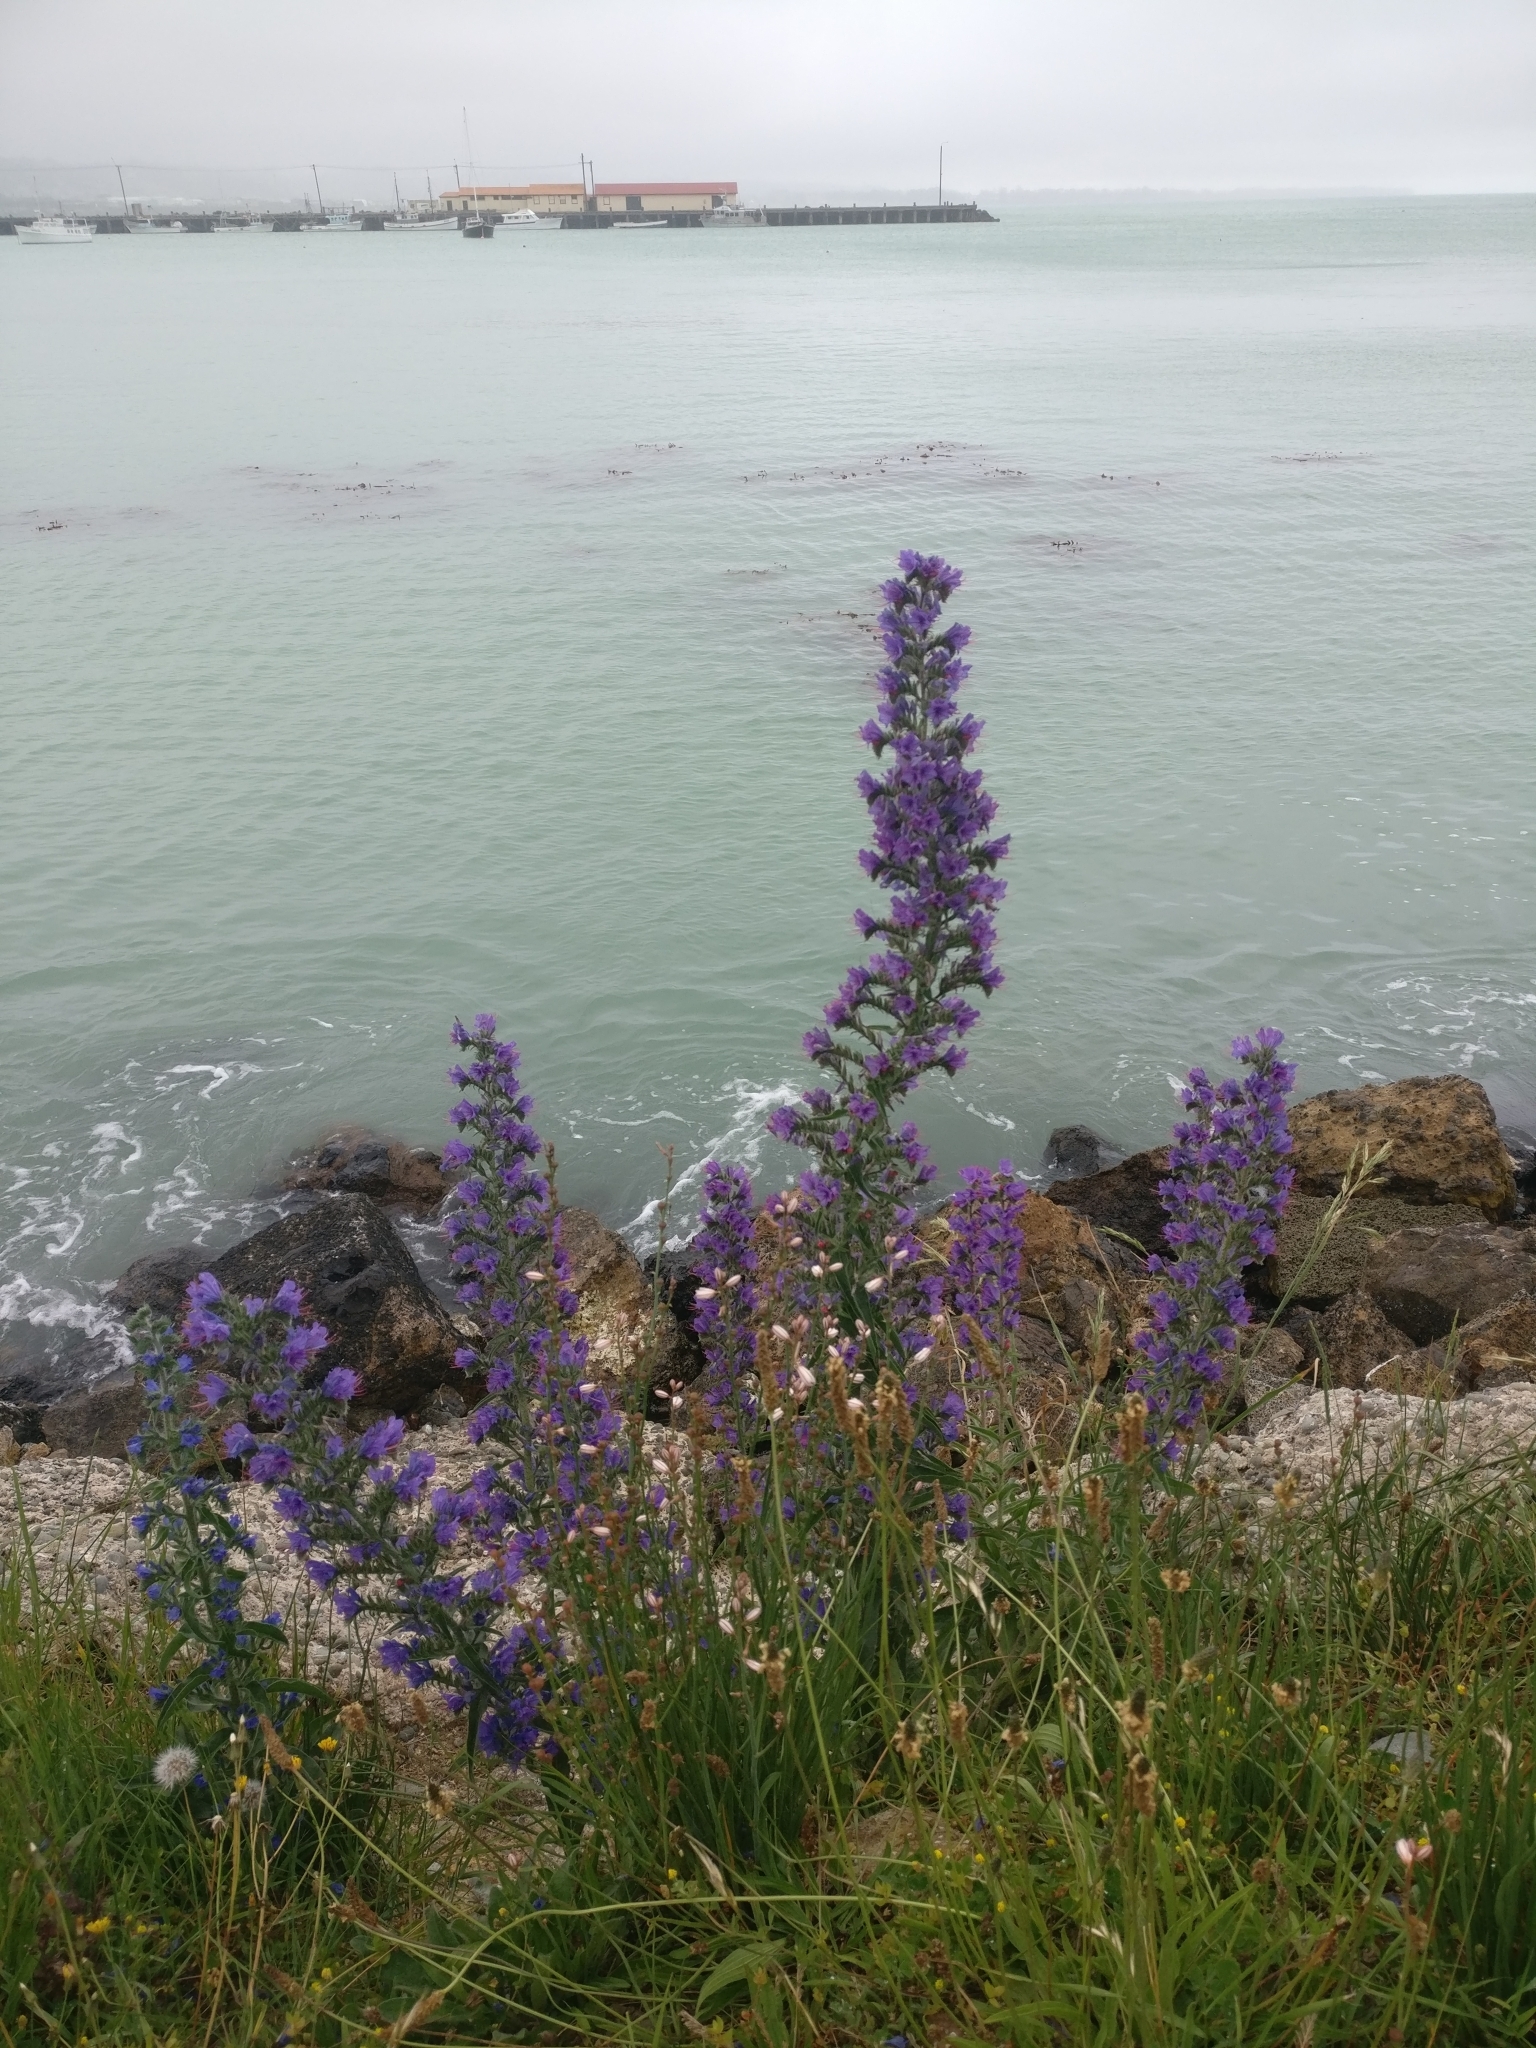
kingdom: Plantae
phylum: Tracheophyta
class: Magnoliopsida
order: Boraginales
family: Boraginaceae
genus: Echium
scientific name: Echium vulgare
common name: Common viper's bugloss
